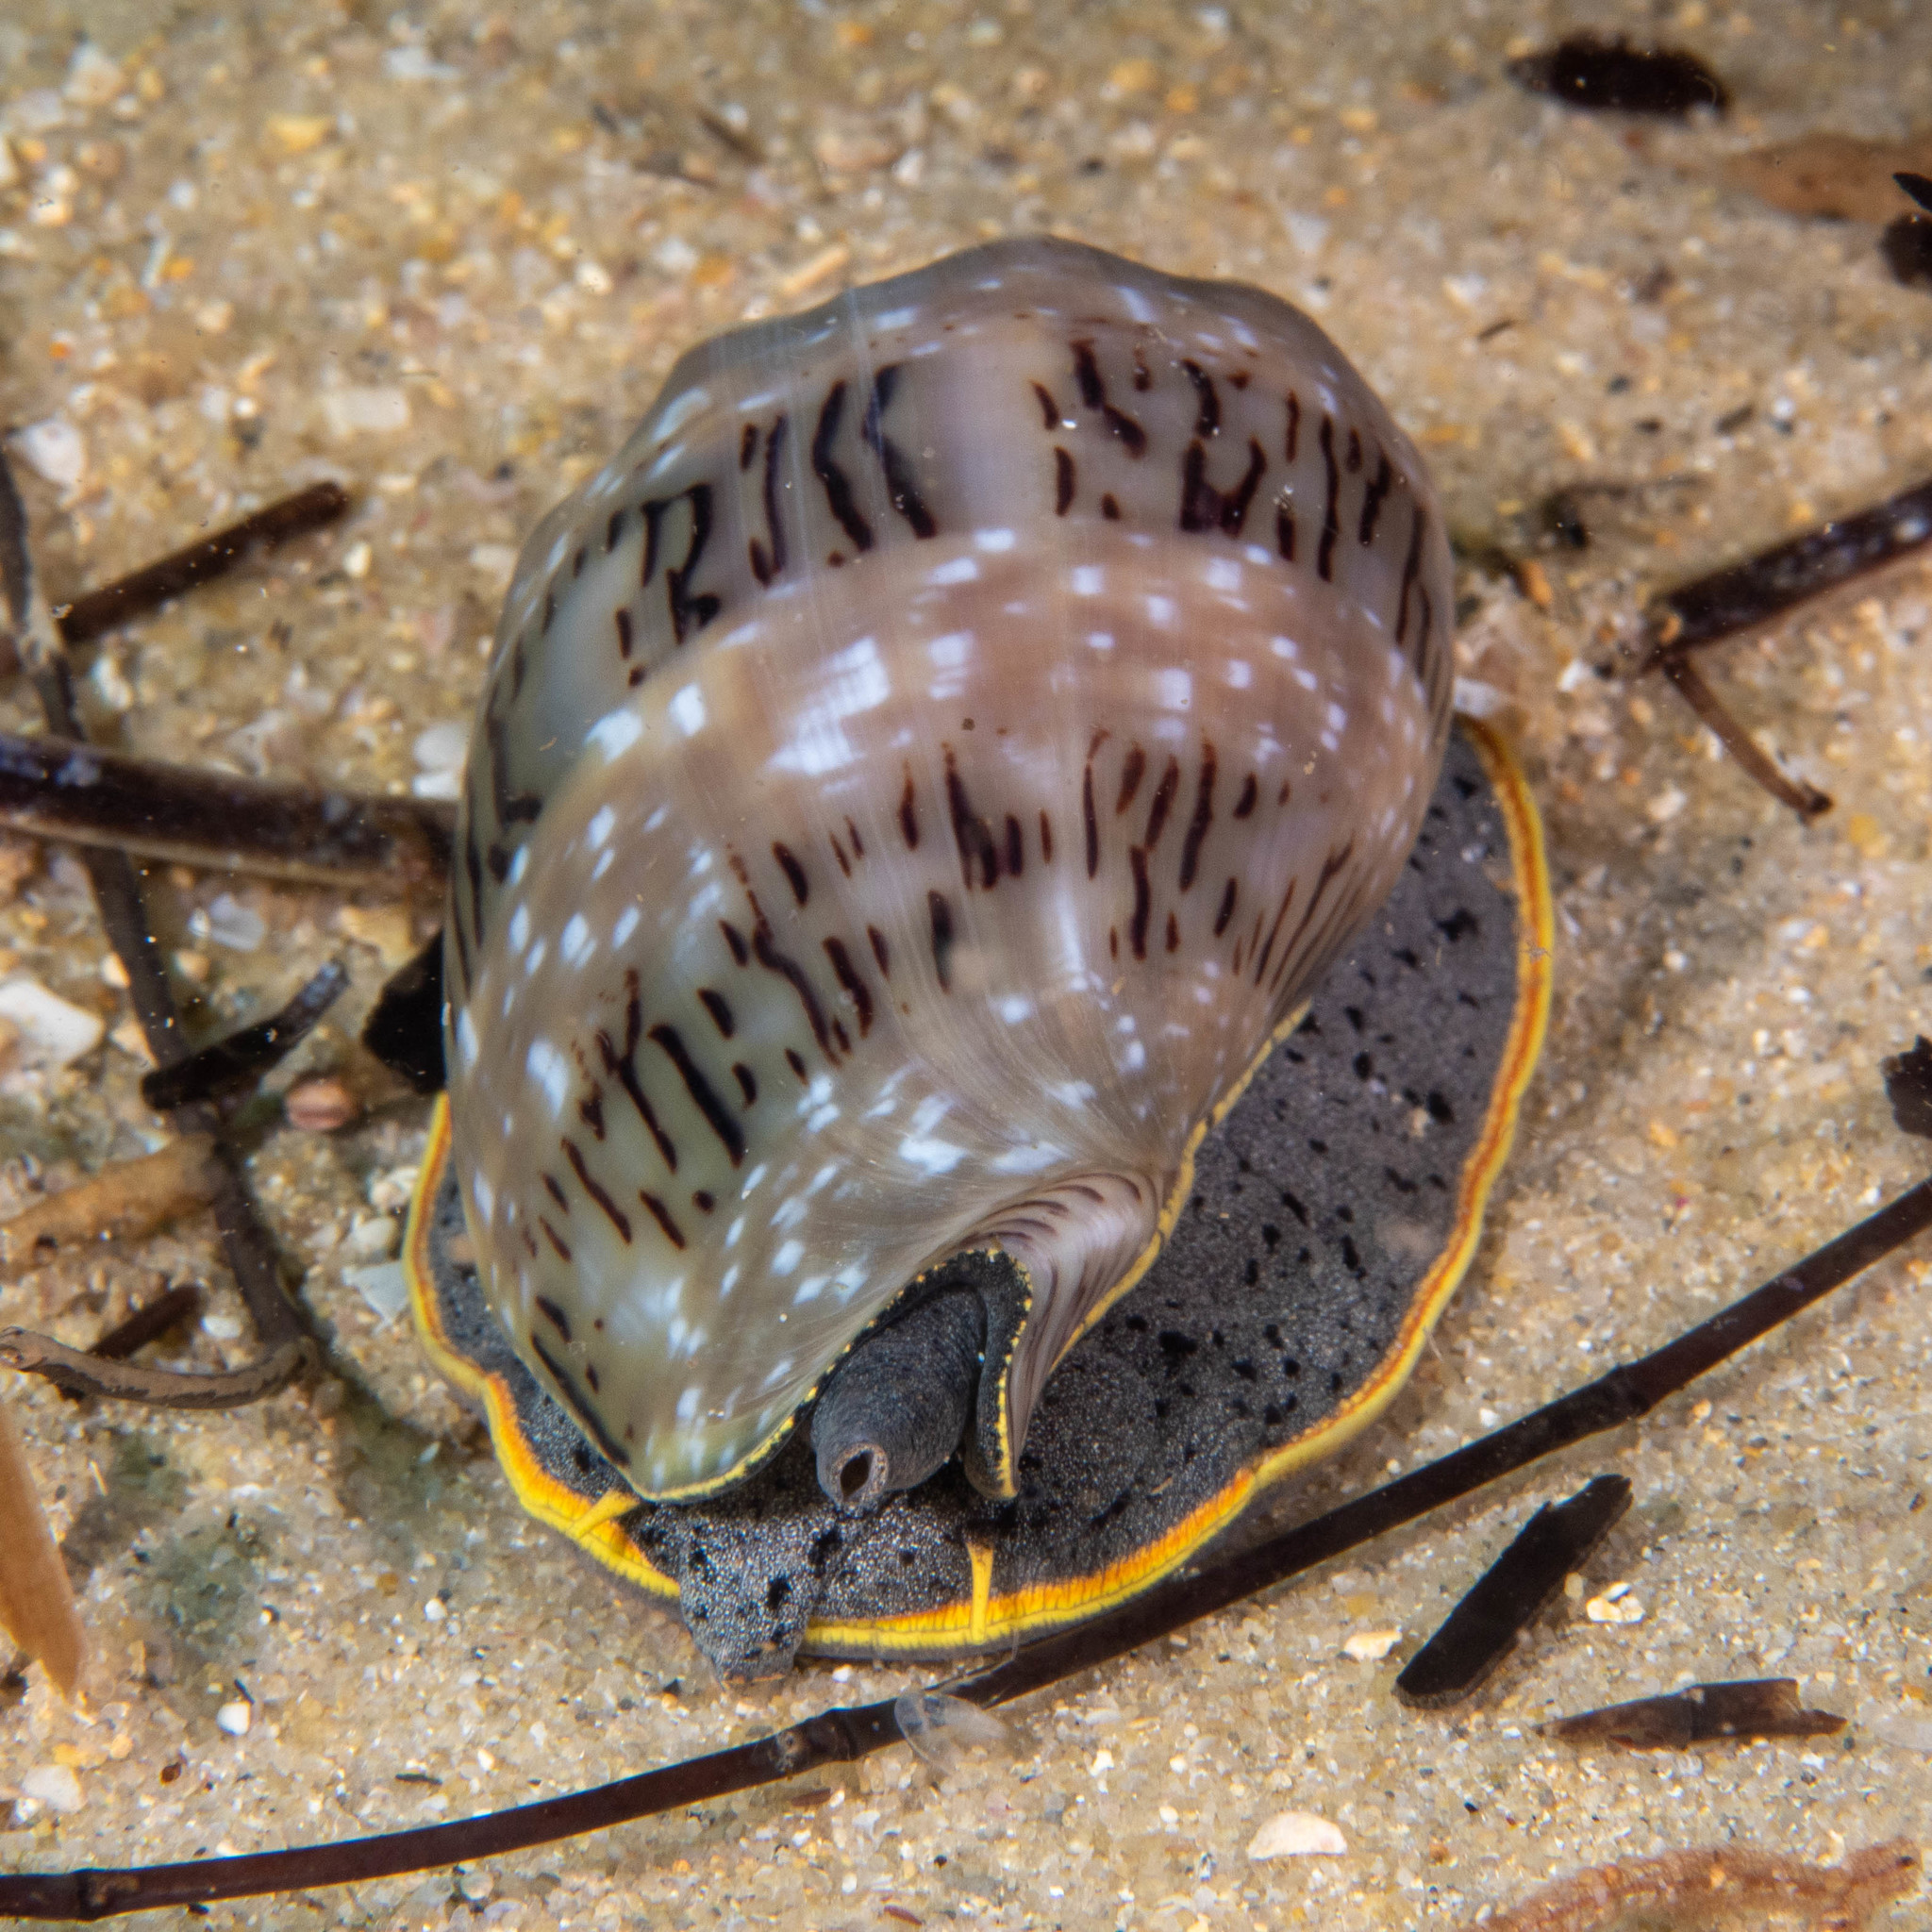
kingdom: Animalia
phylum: Mollusca
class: Gastropoda
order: Neogastropoda
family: Volutidae
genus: Cymbiola
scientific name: Cymbiola nivosa
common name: Snowy volute
